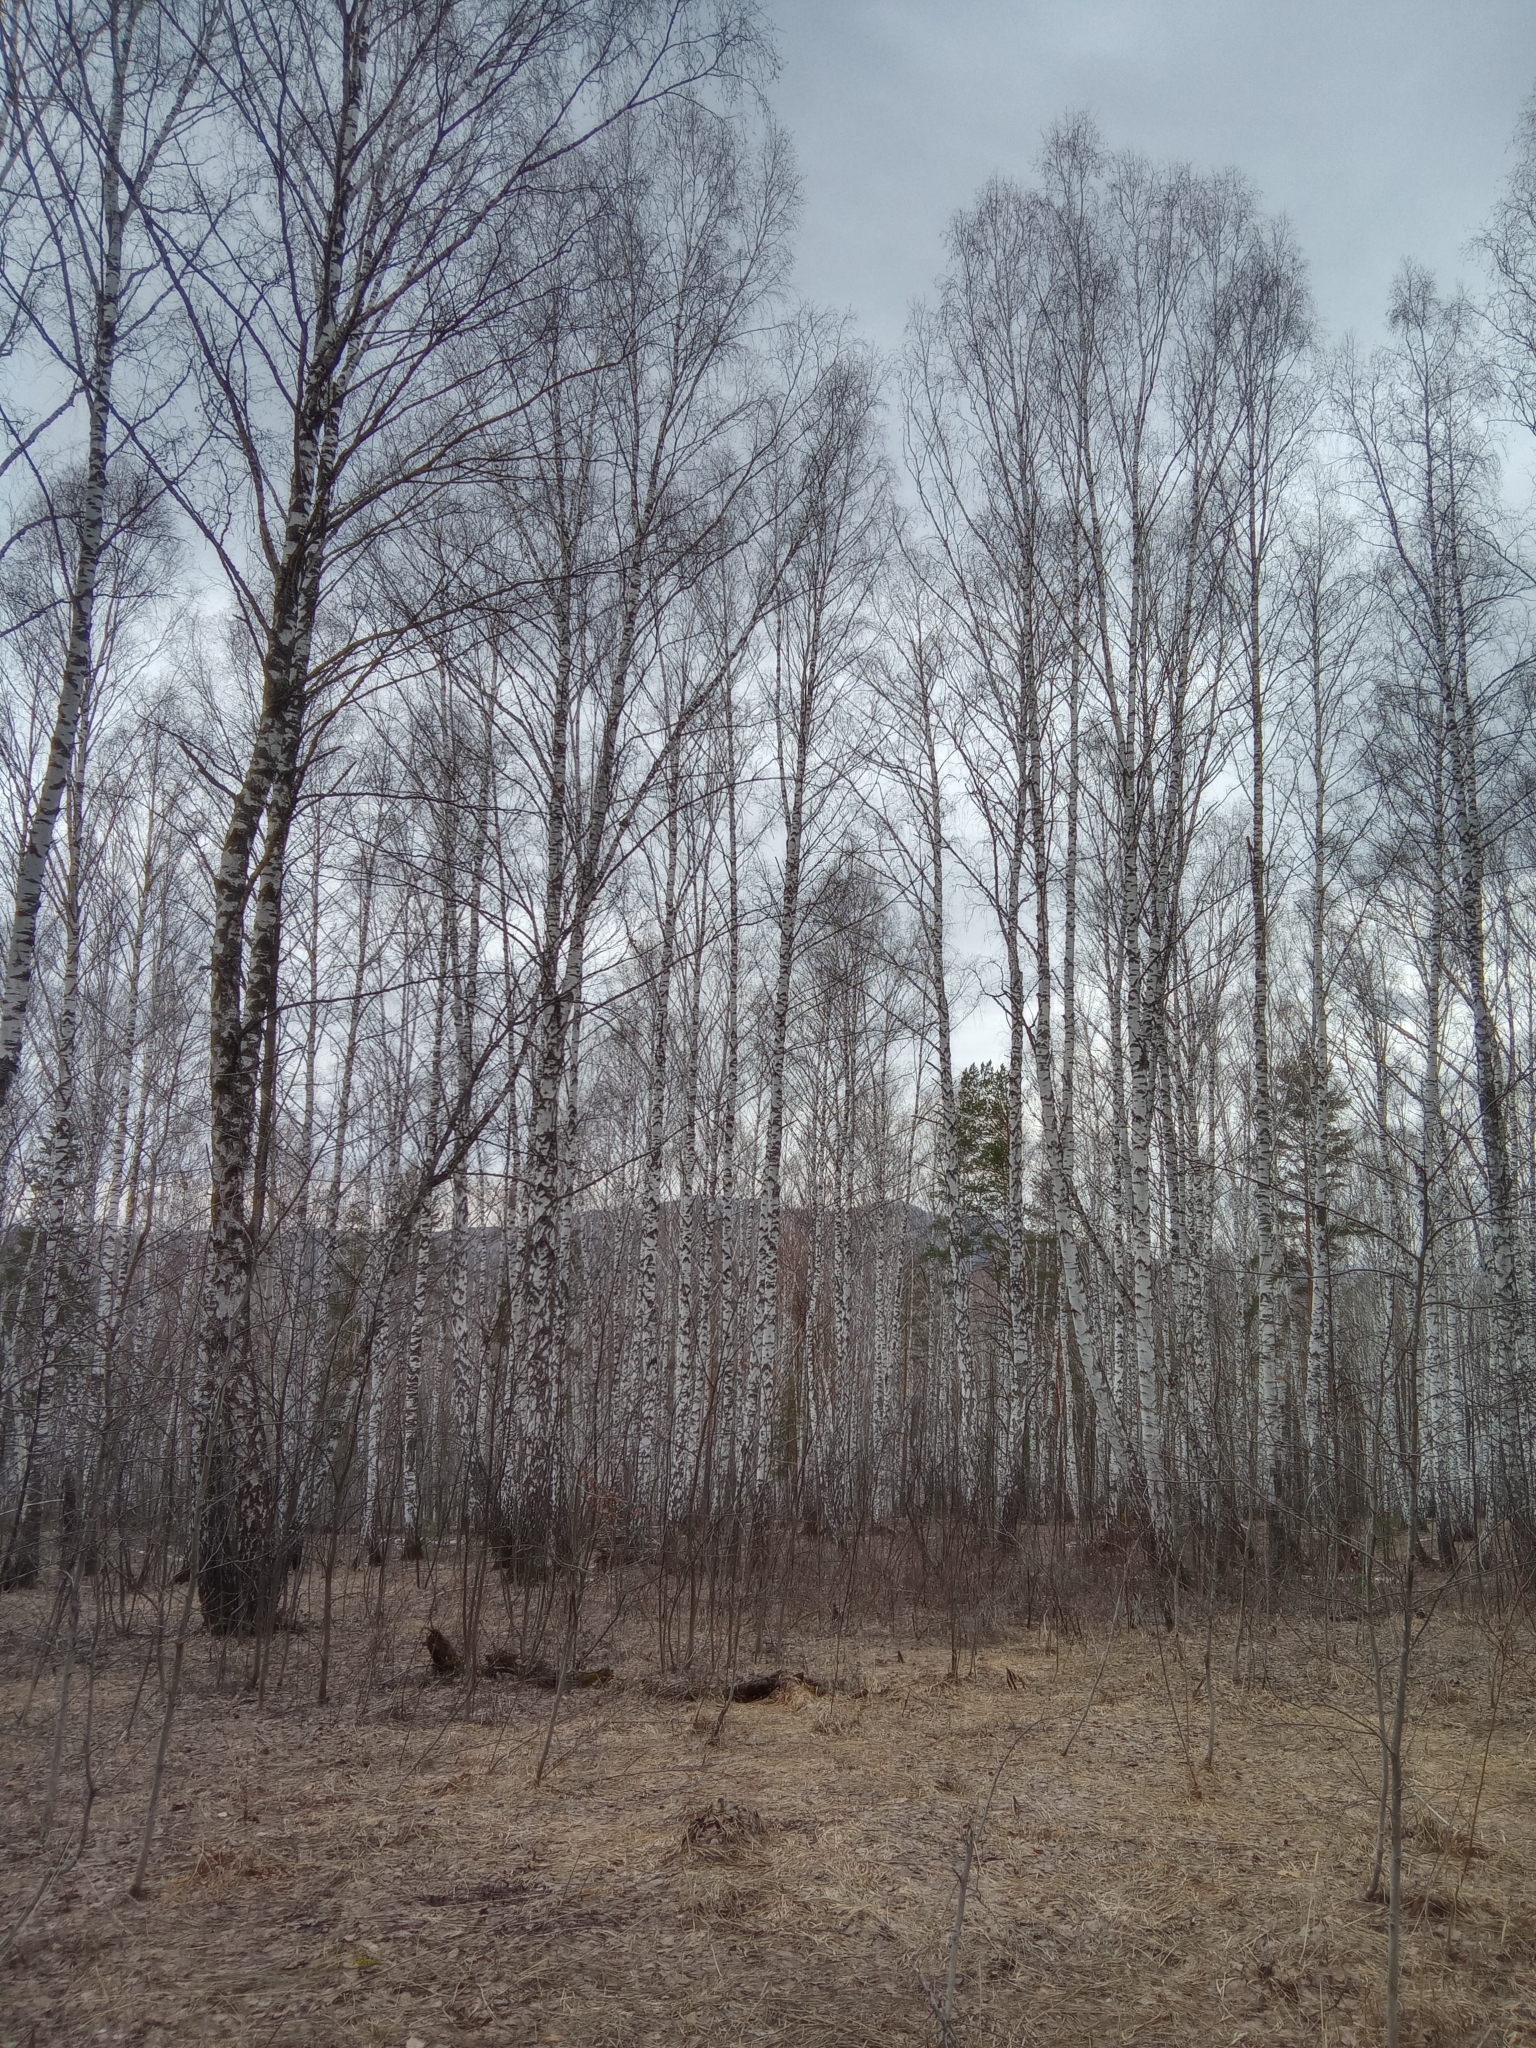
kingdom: Plantae
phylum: Tracheophyta
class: Magnoliopsida
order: Fagales
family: Betulaceae
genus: Betula
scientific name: Betula pendula
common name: Silver birch
